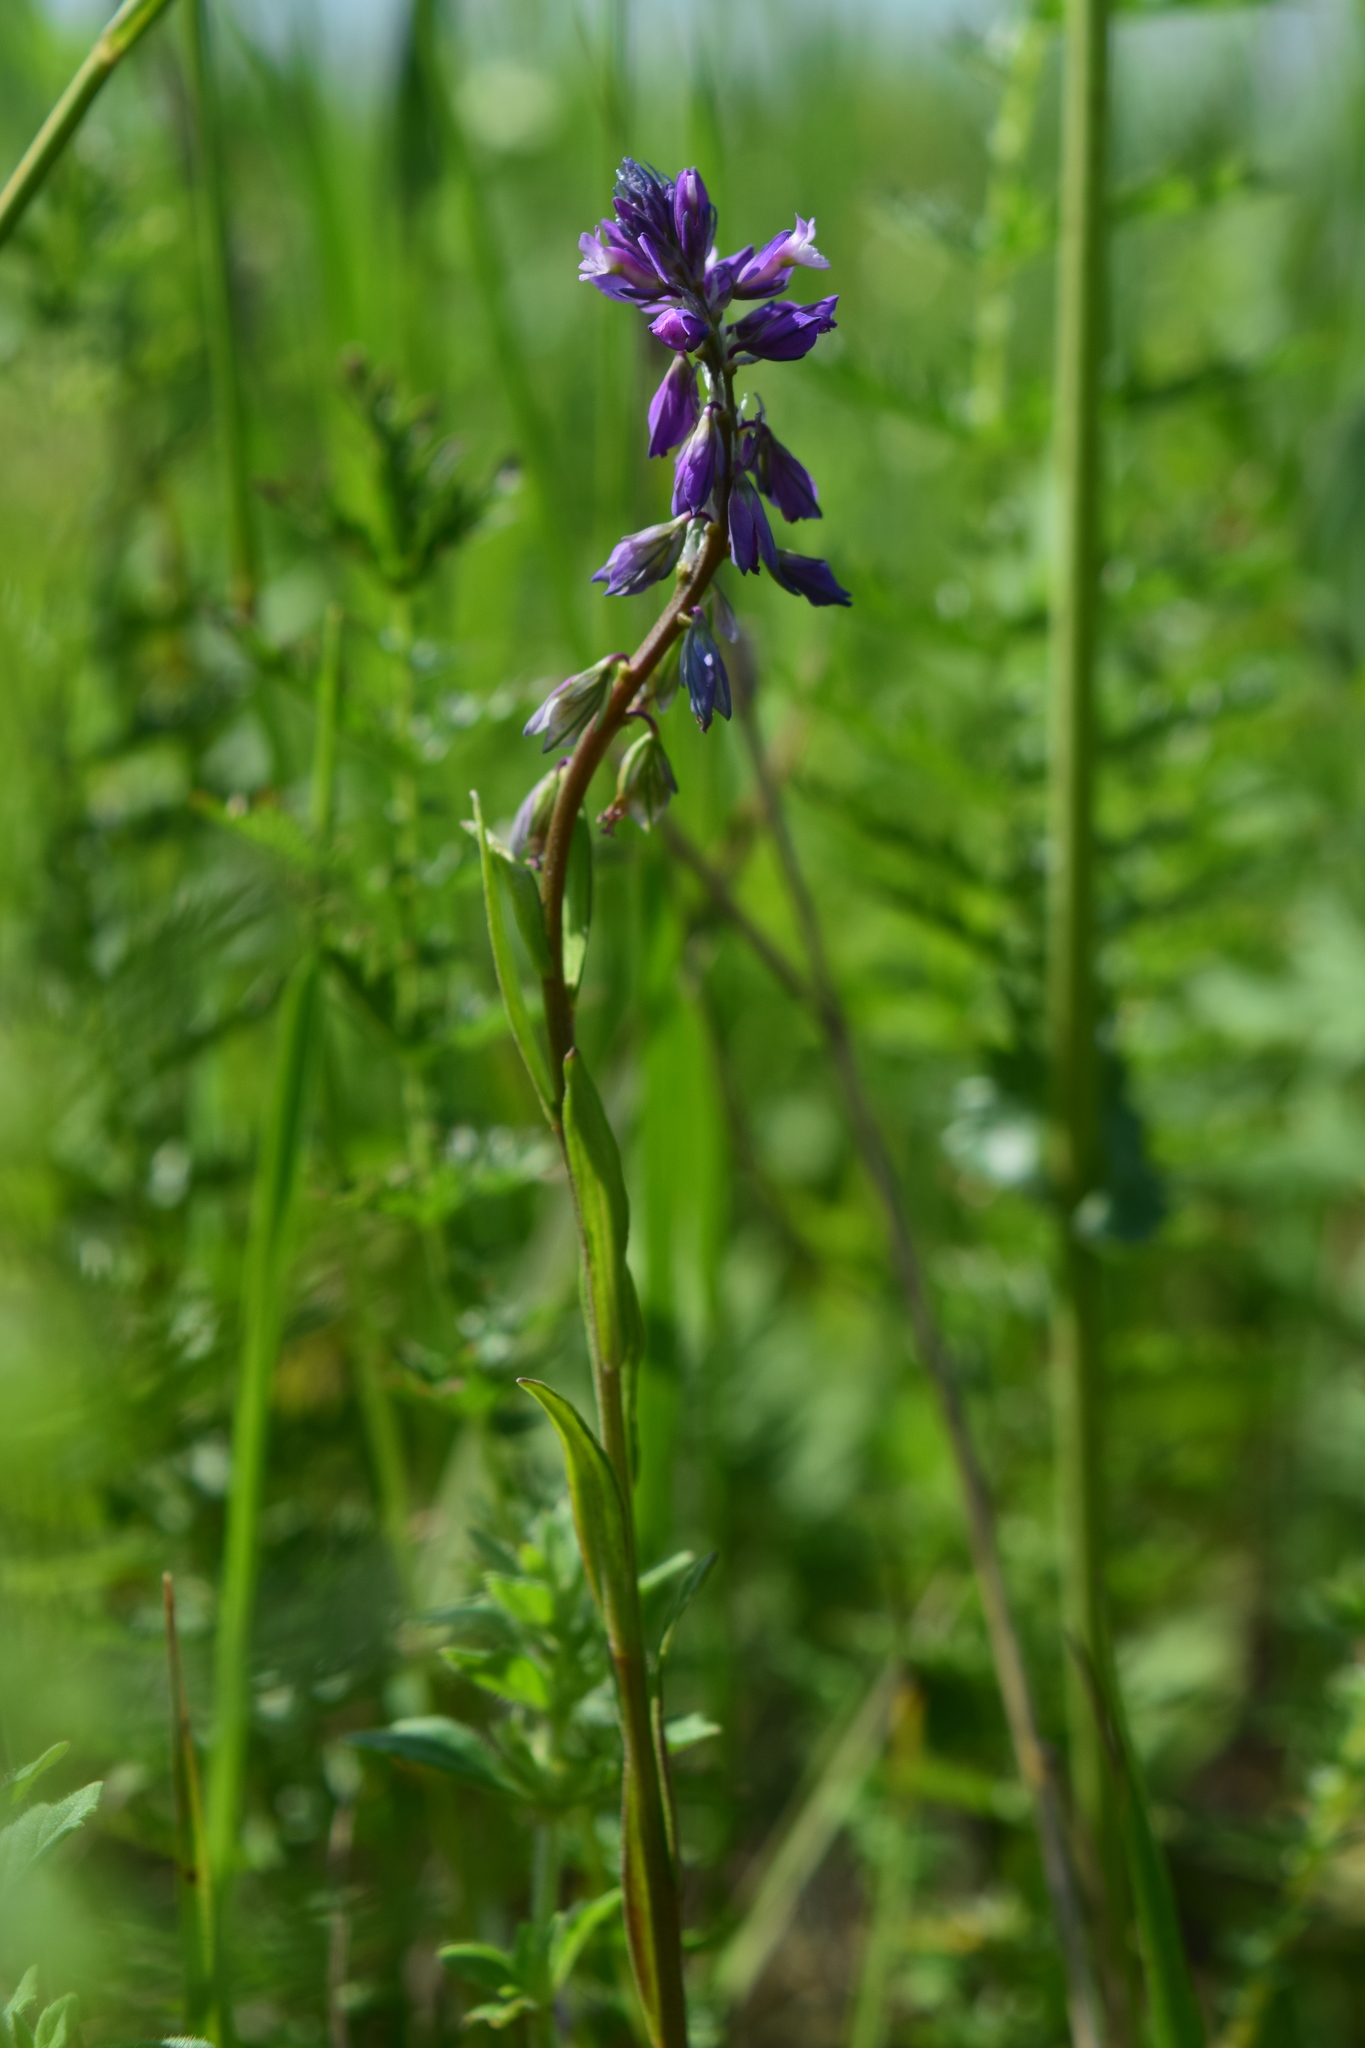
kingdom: Plantae
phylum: Tracheophyta
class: Magnoliopsida
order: Fabales
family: Polygalaceae
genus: Polygala
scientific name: Polygala comosa
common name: Tufted milkwort
